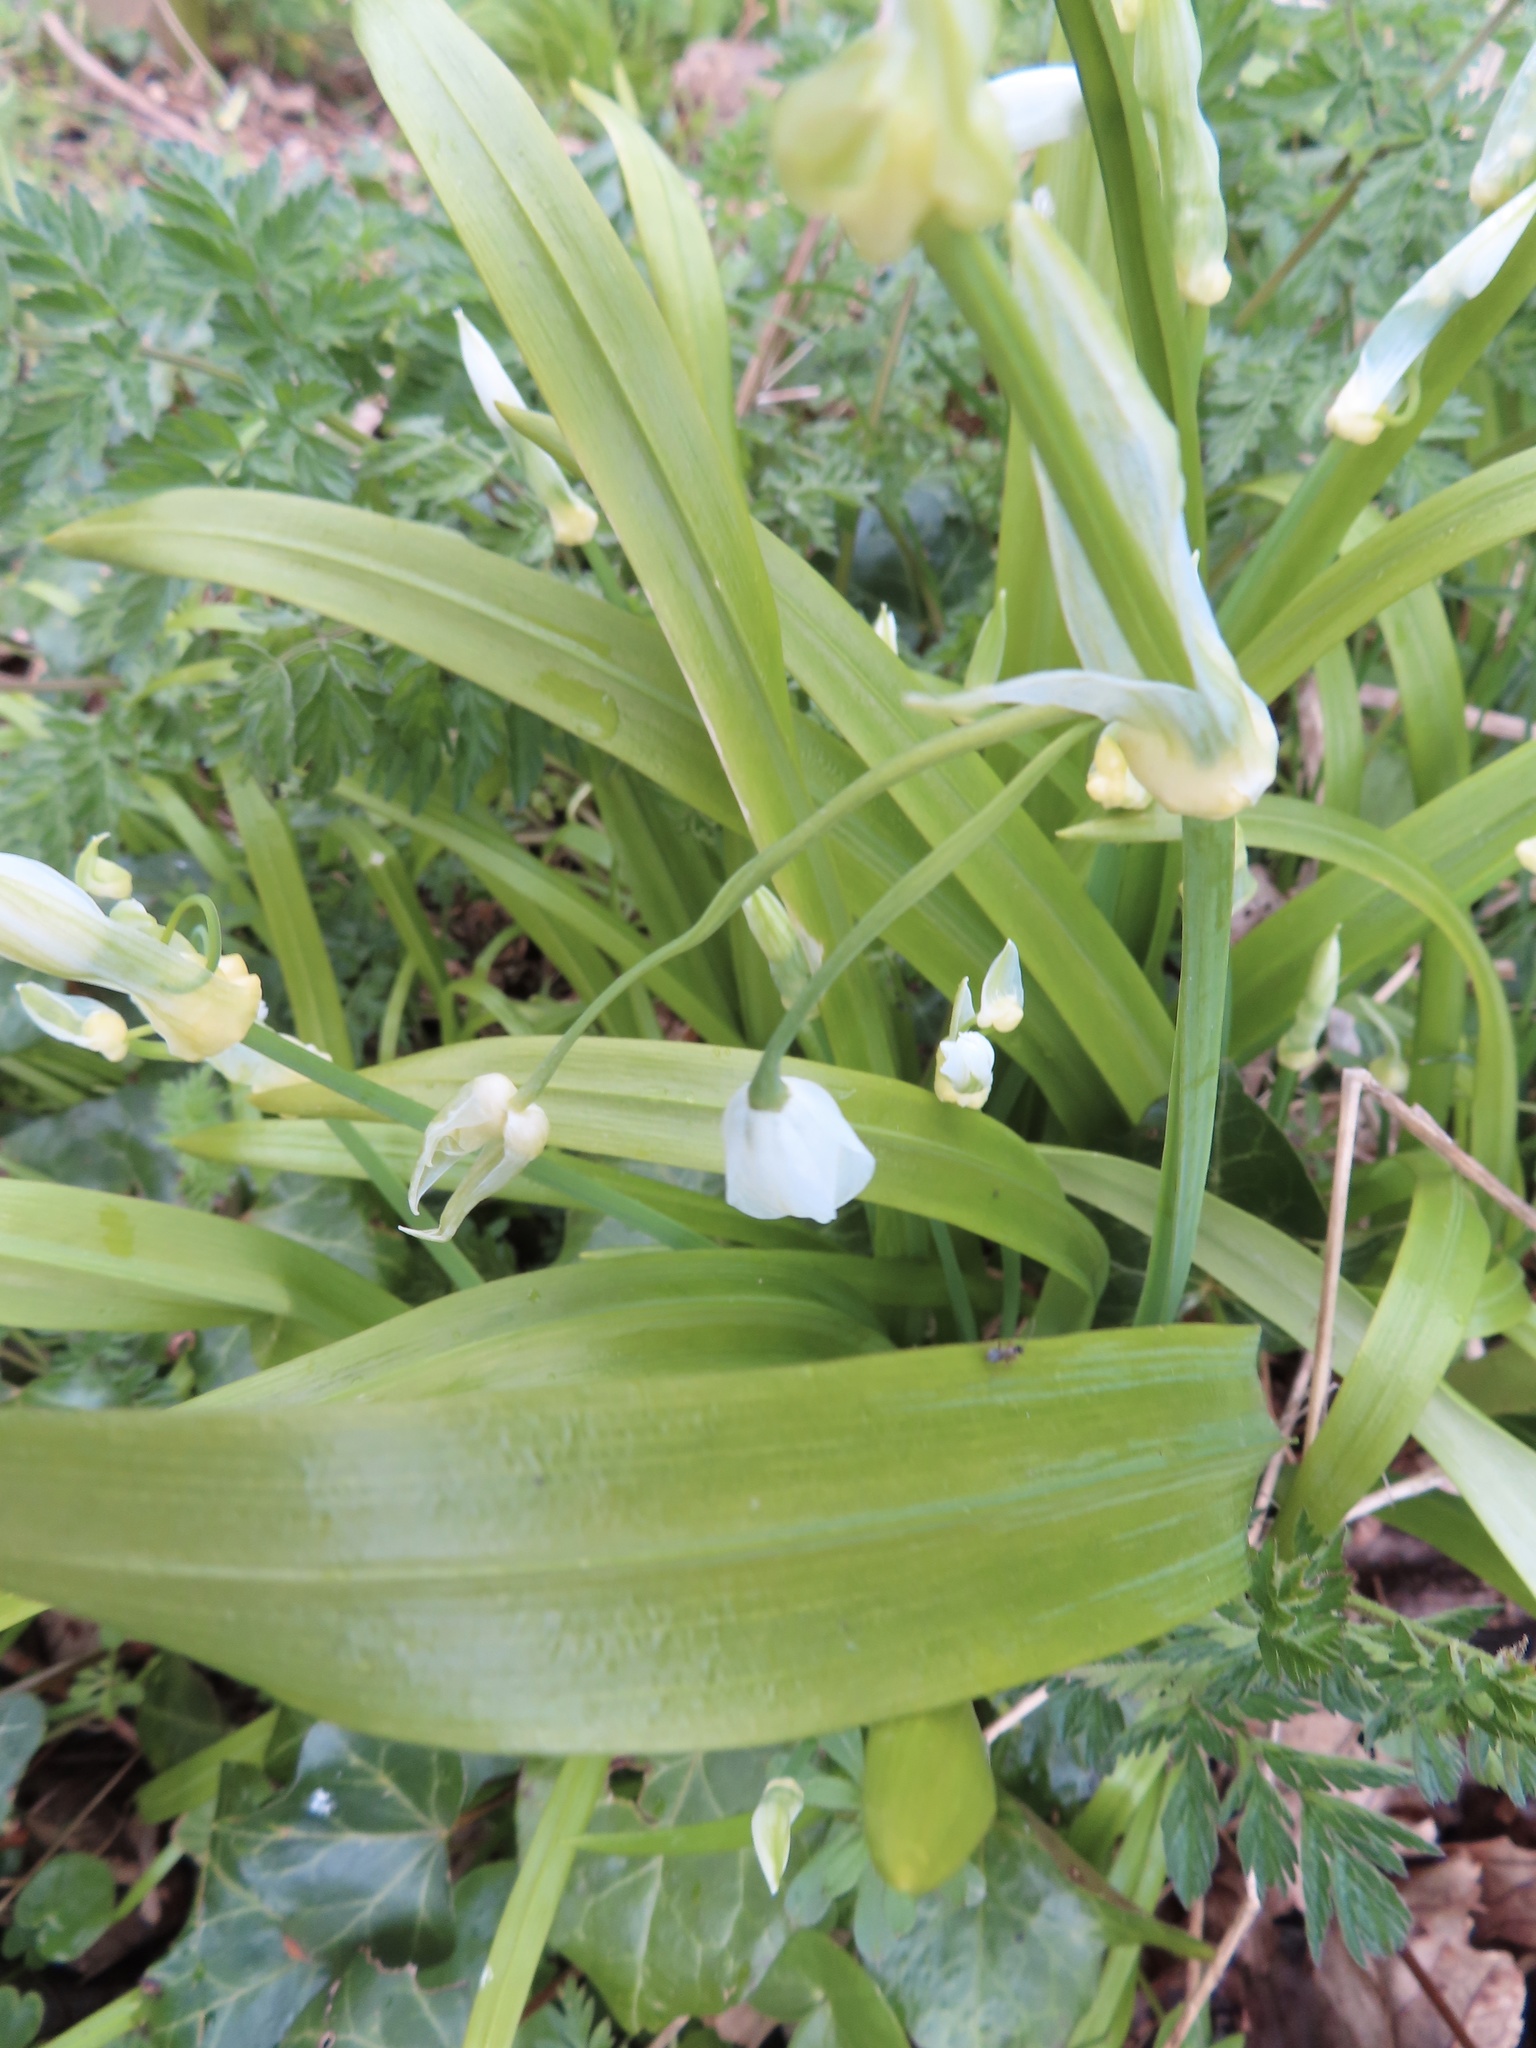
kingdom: Plantae
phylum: Tracheophyta
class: Liliopsida
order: Asparagales
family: Amaryllidaceae
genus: Allium
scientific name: Allium paradoxum
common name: Few-flowered garlic
